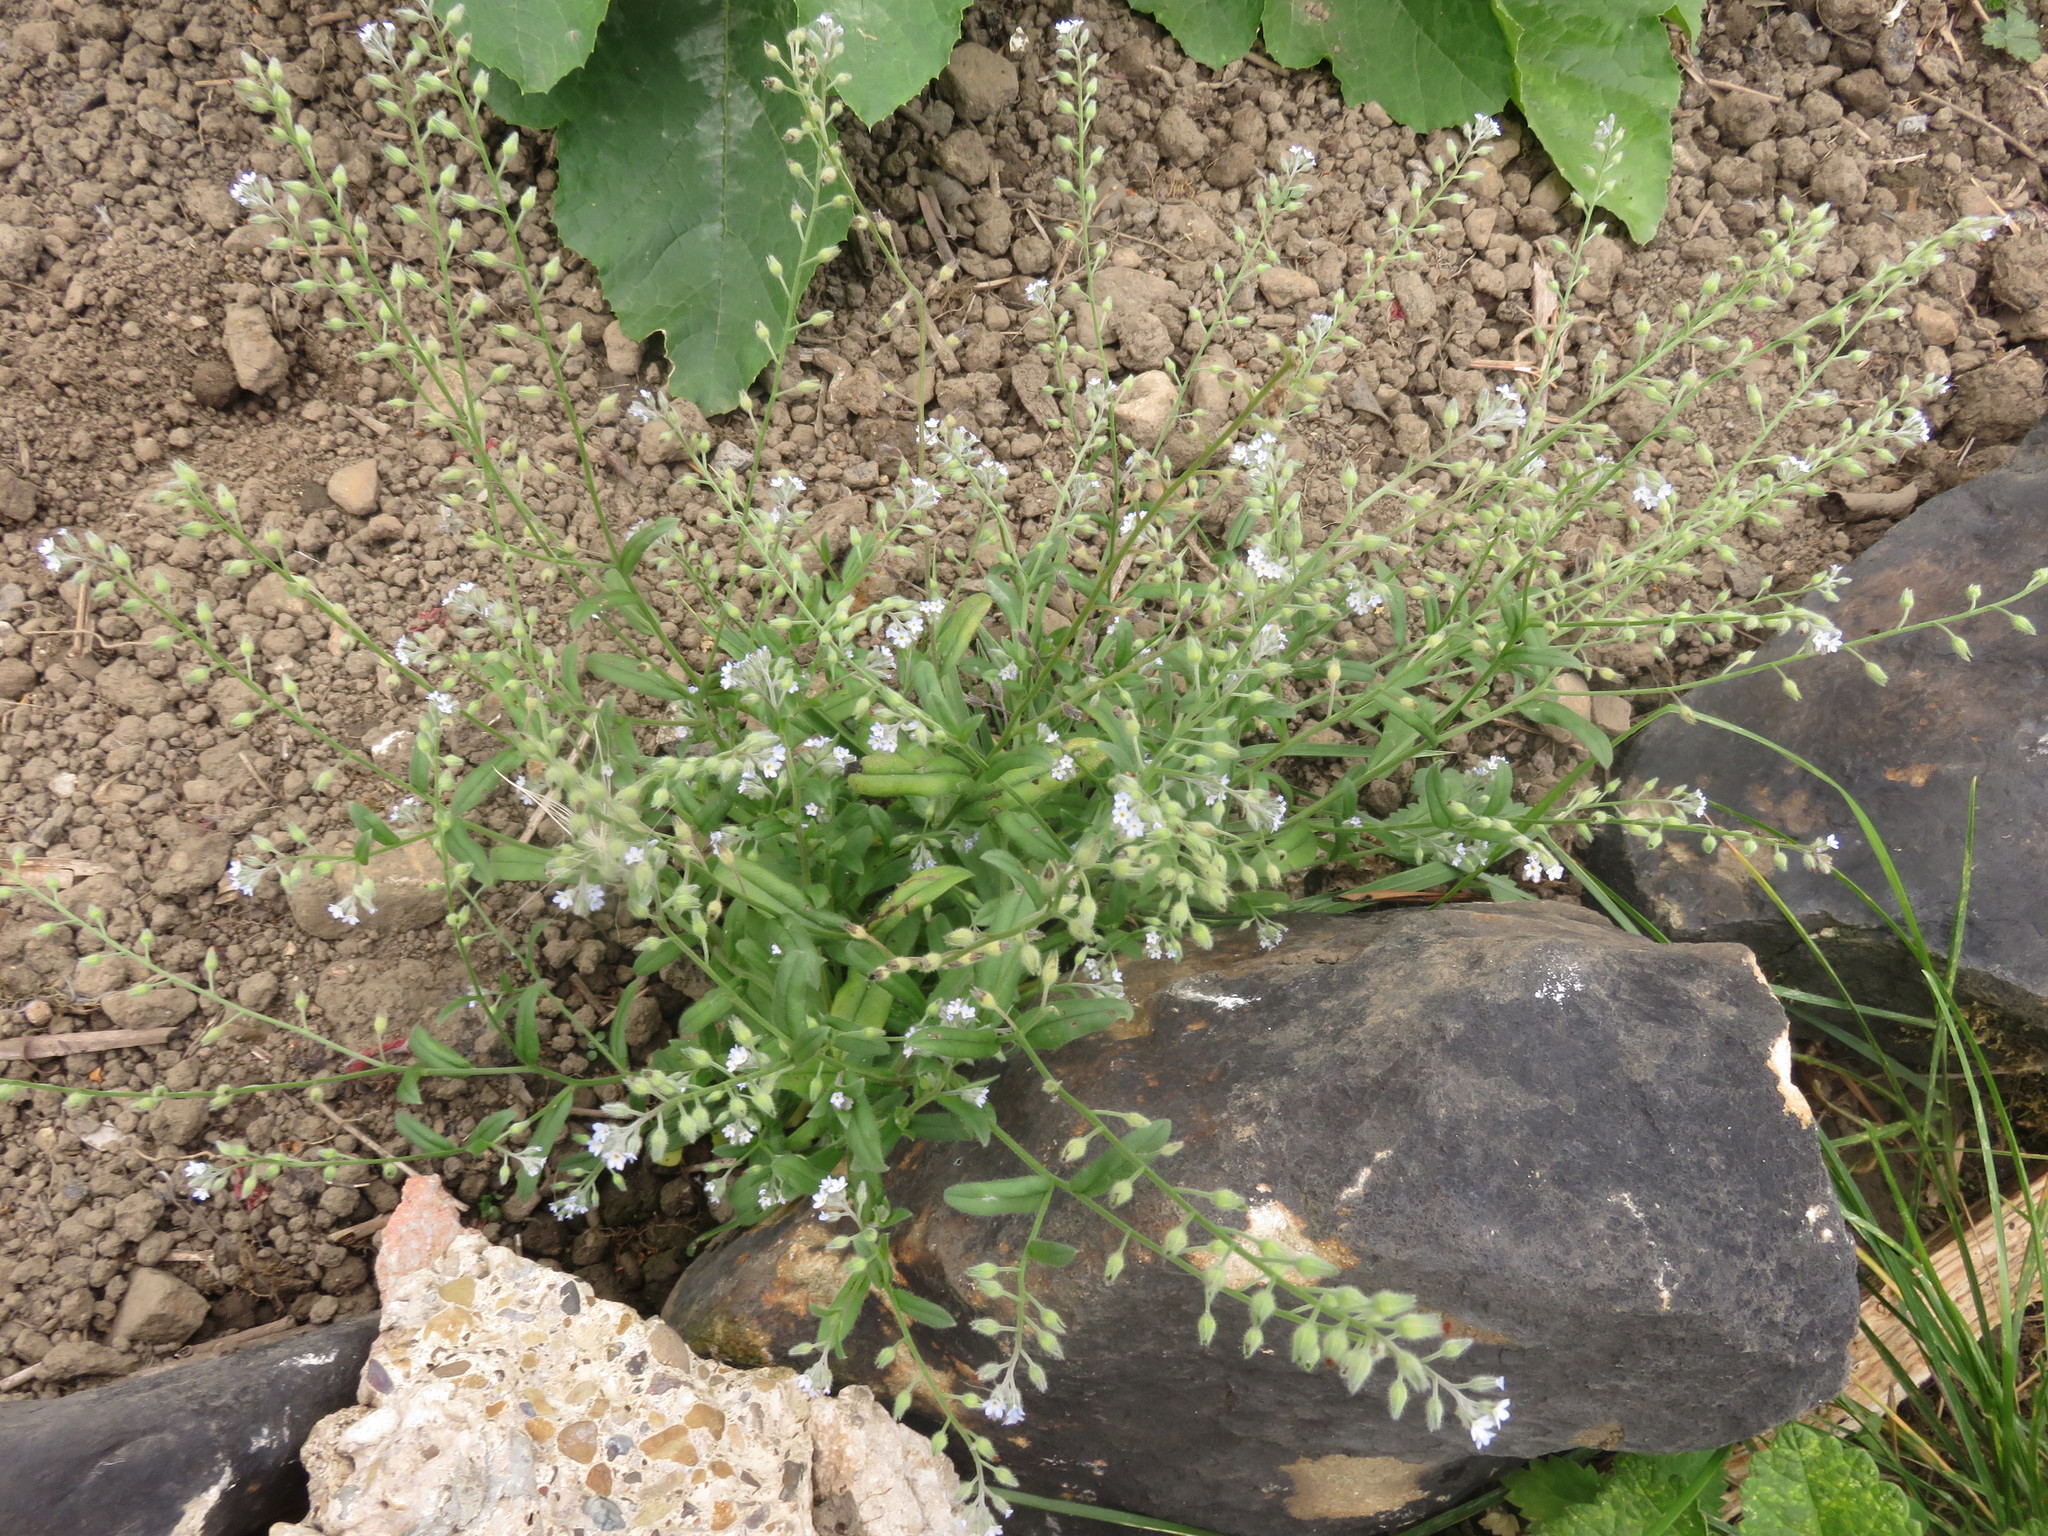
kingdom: Plantae
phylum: Tracheophyta
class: Magnoliopsida
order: Boraginales
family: Boraginaceae
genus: Myosotis
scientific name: Myosotis arvensis
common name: Field forget-me-not
